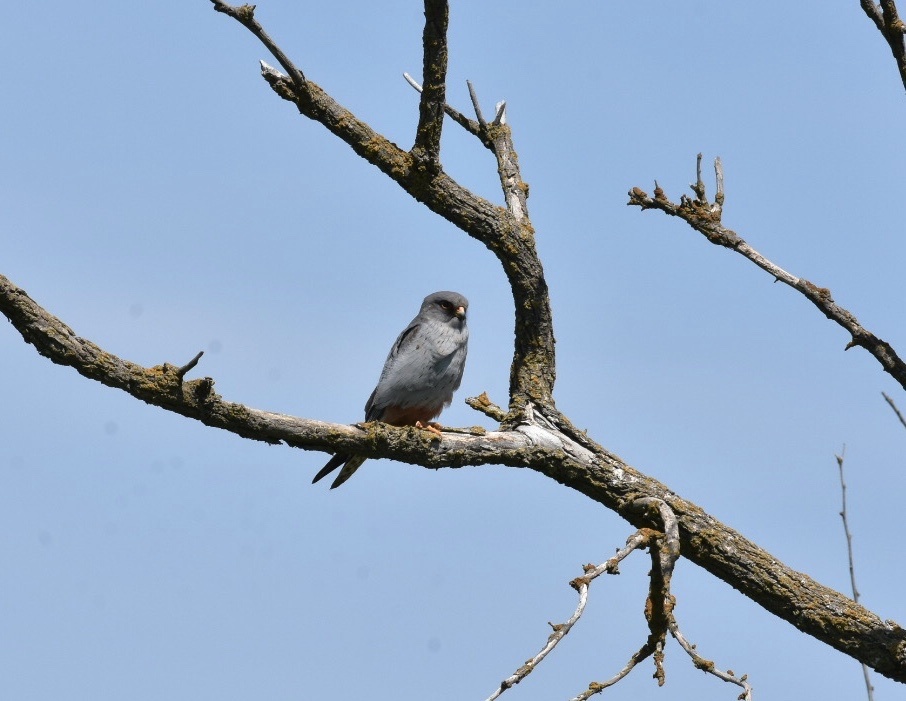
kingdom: Animalia
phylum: Chordata
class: Aves
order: Falconiformes
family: Falconidae
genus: Falco
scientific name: Falco vespertinus
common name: Red-footed falcon
